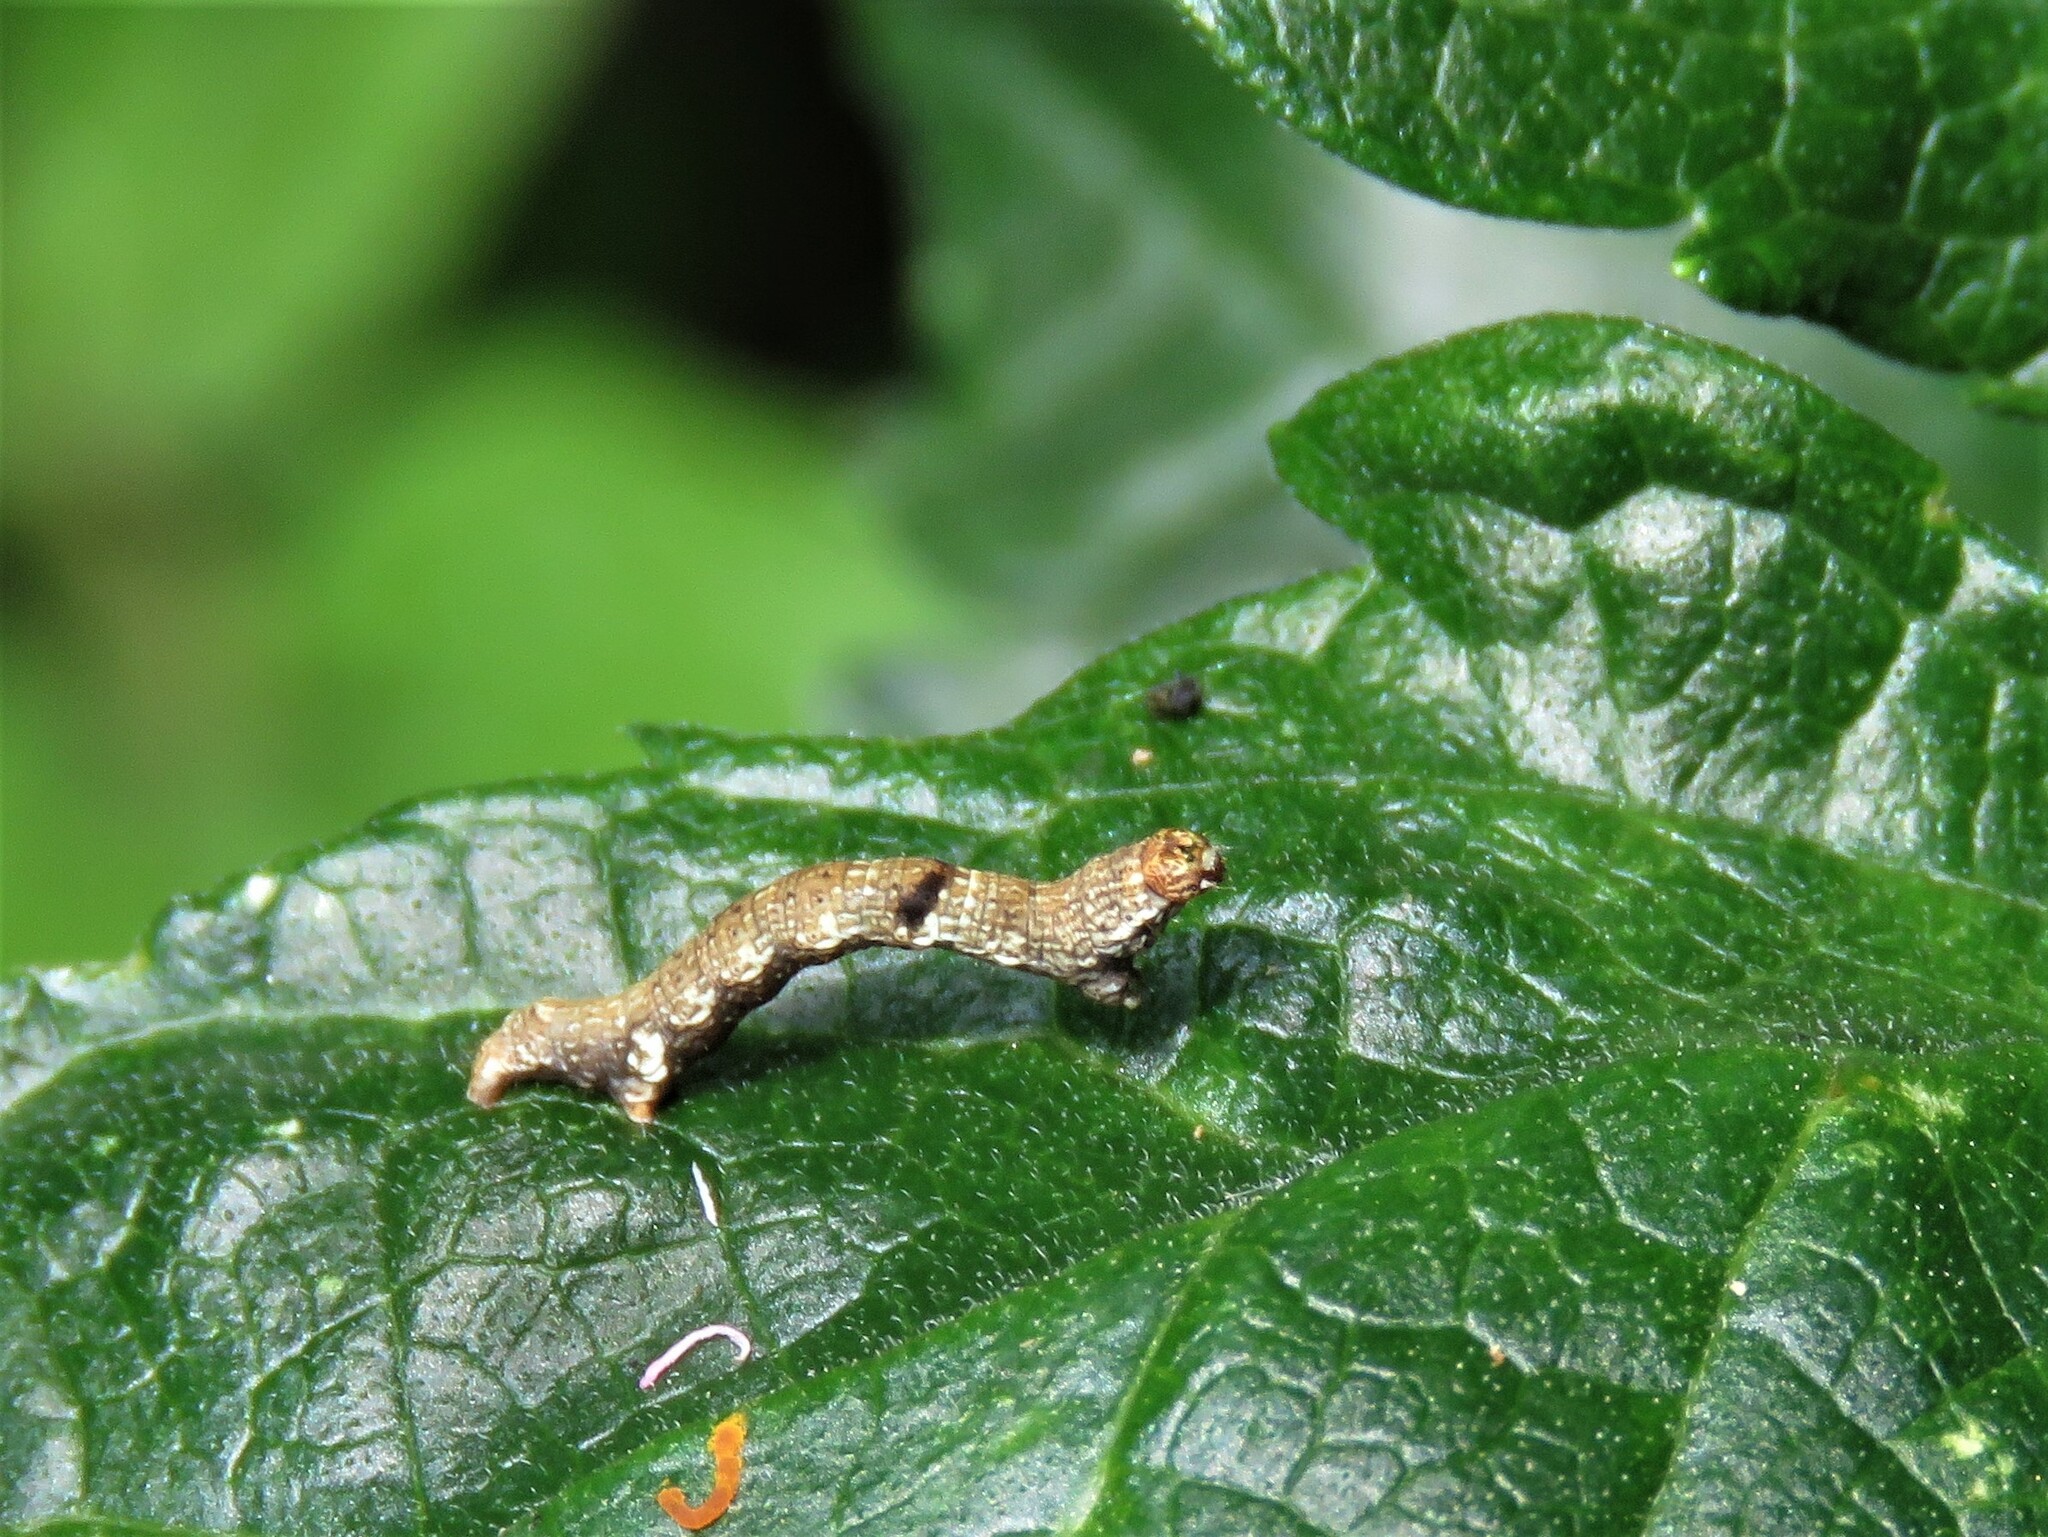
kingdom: Animalia
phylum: Arthropoda
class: Insecta
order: Lepidoptera
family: Geometridae
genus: Ectropis
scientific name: Ectropis crepuscularia
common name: Engrailed
